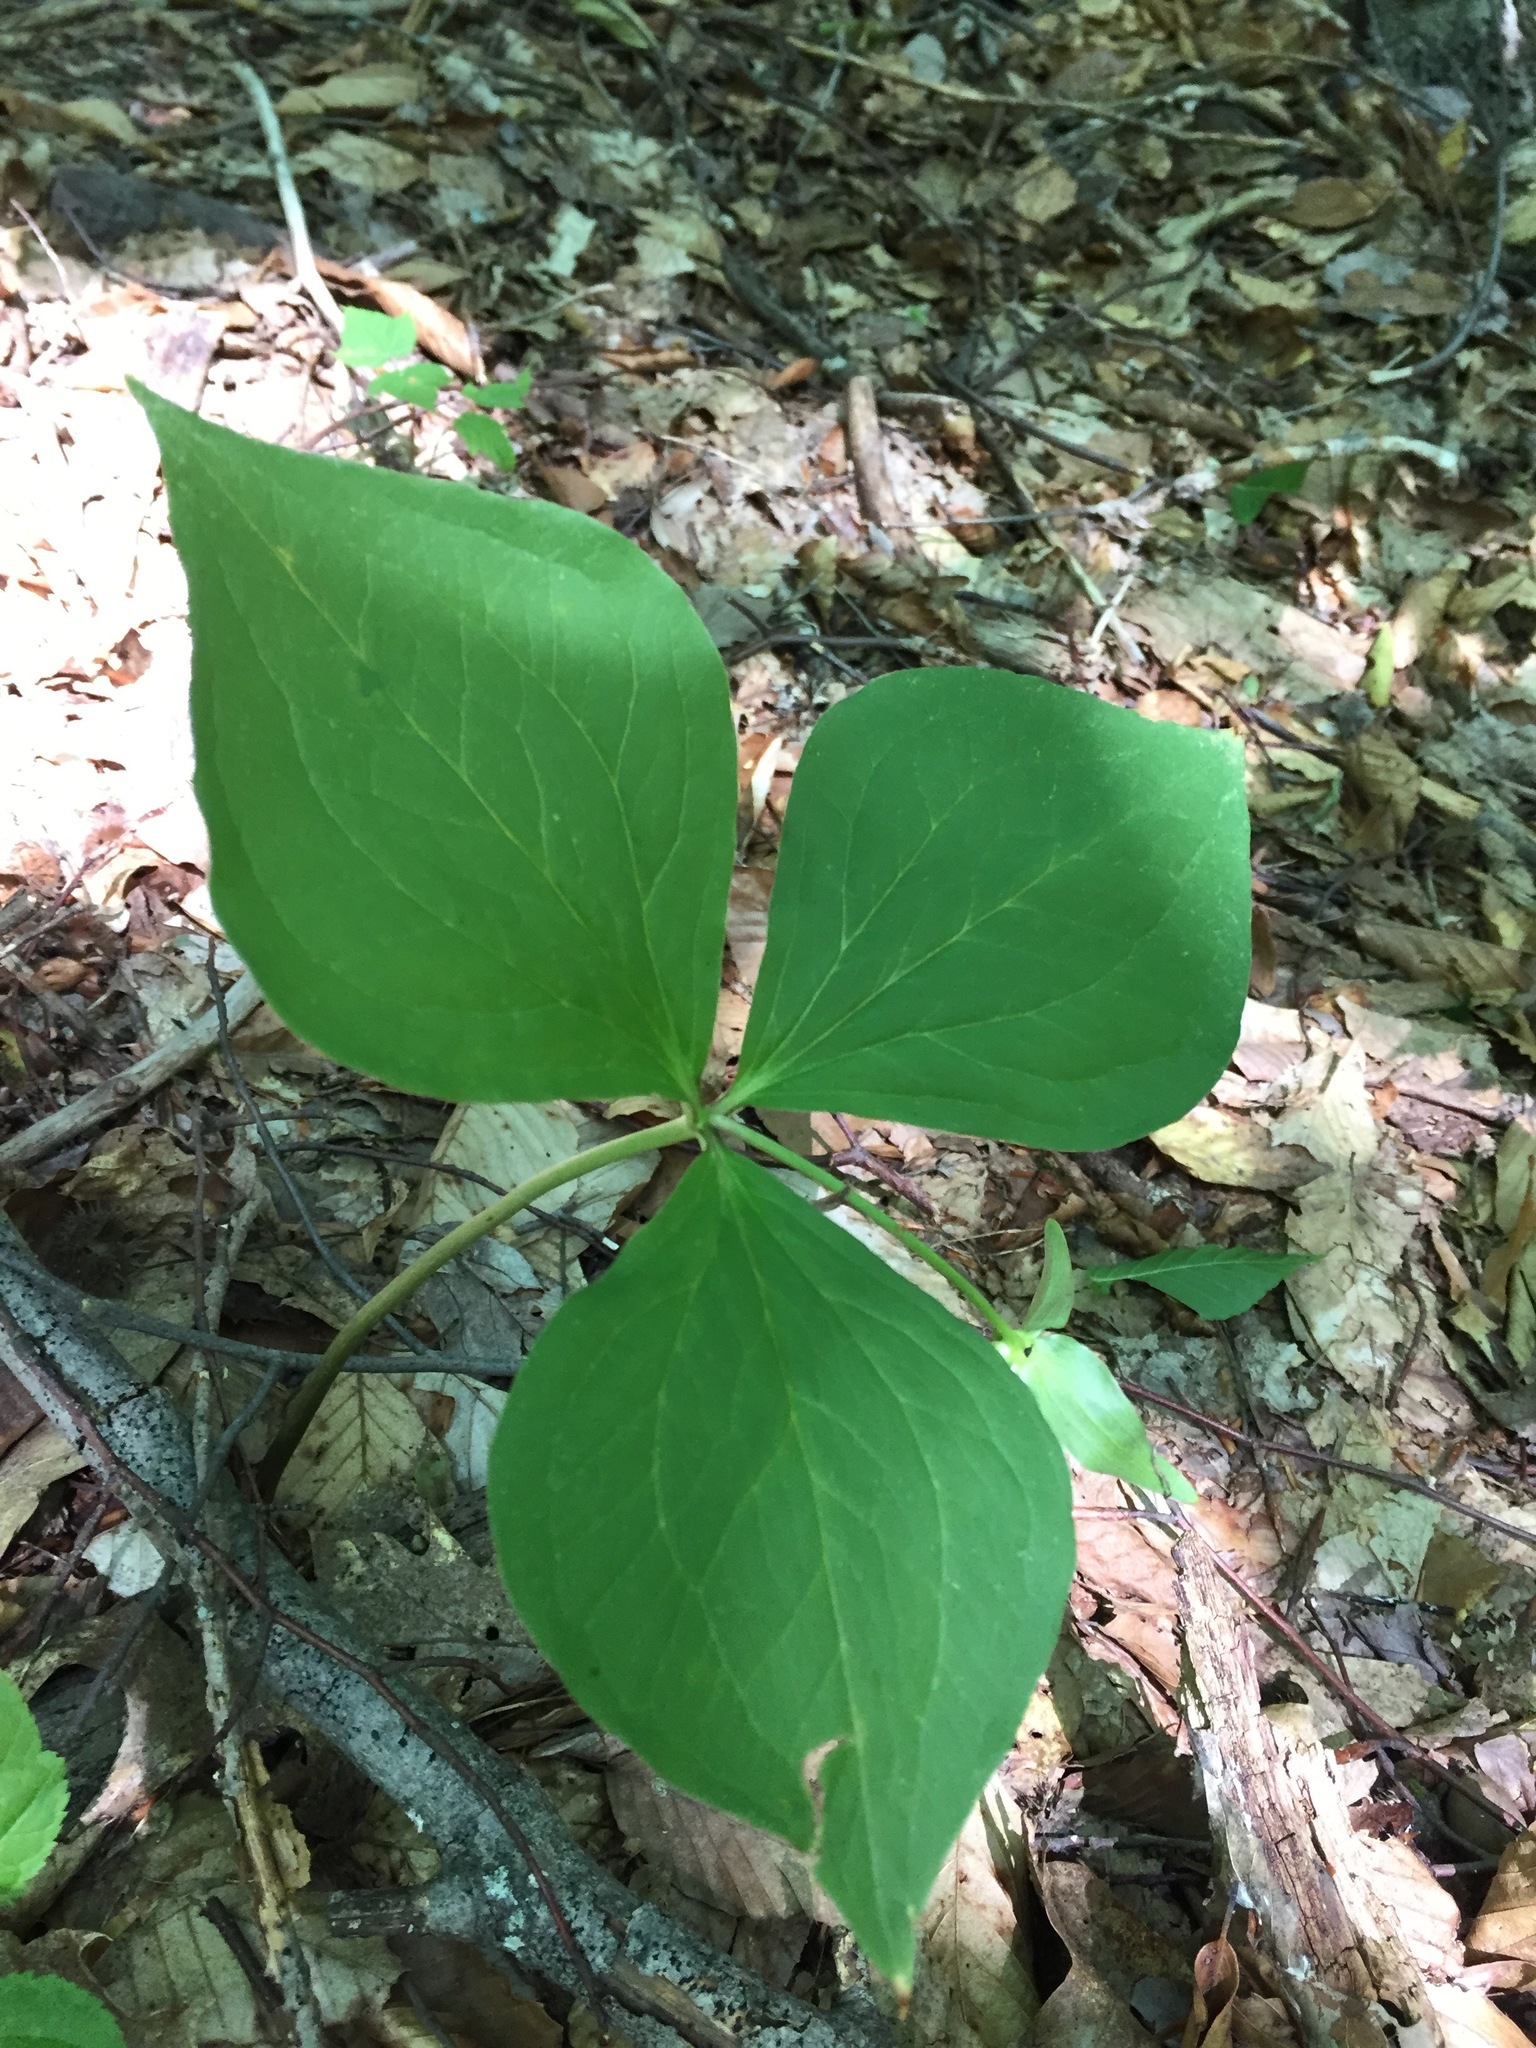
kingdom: Plantae
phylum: Tracheophyta
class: Liliopsida
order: Liliales
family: Melanthiaceae
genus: Trillium
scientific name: Trillium grandiflorum
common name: Great white trillium
